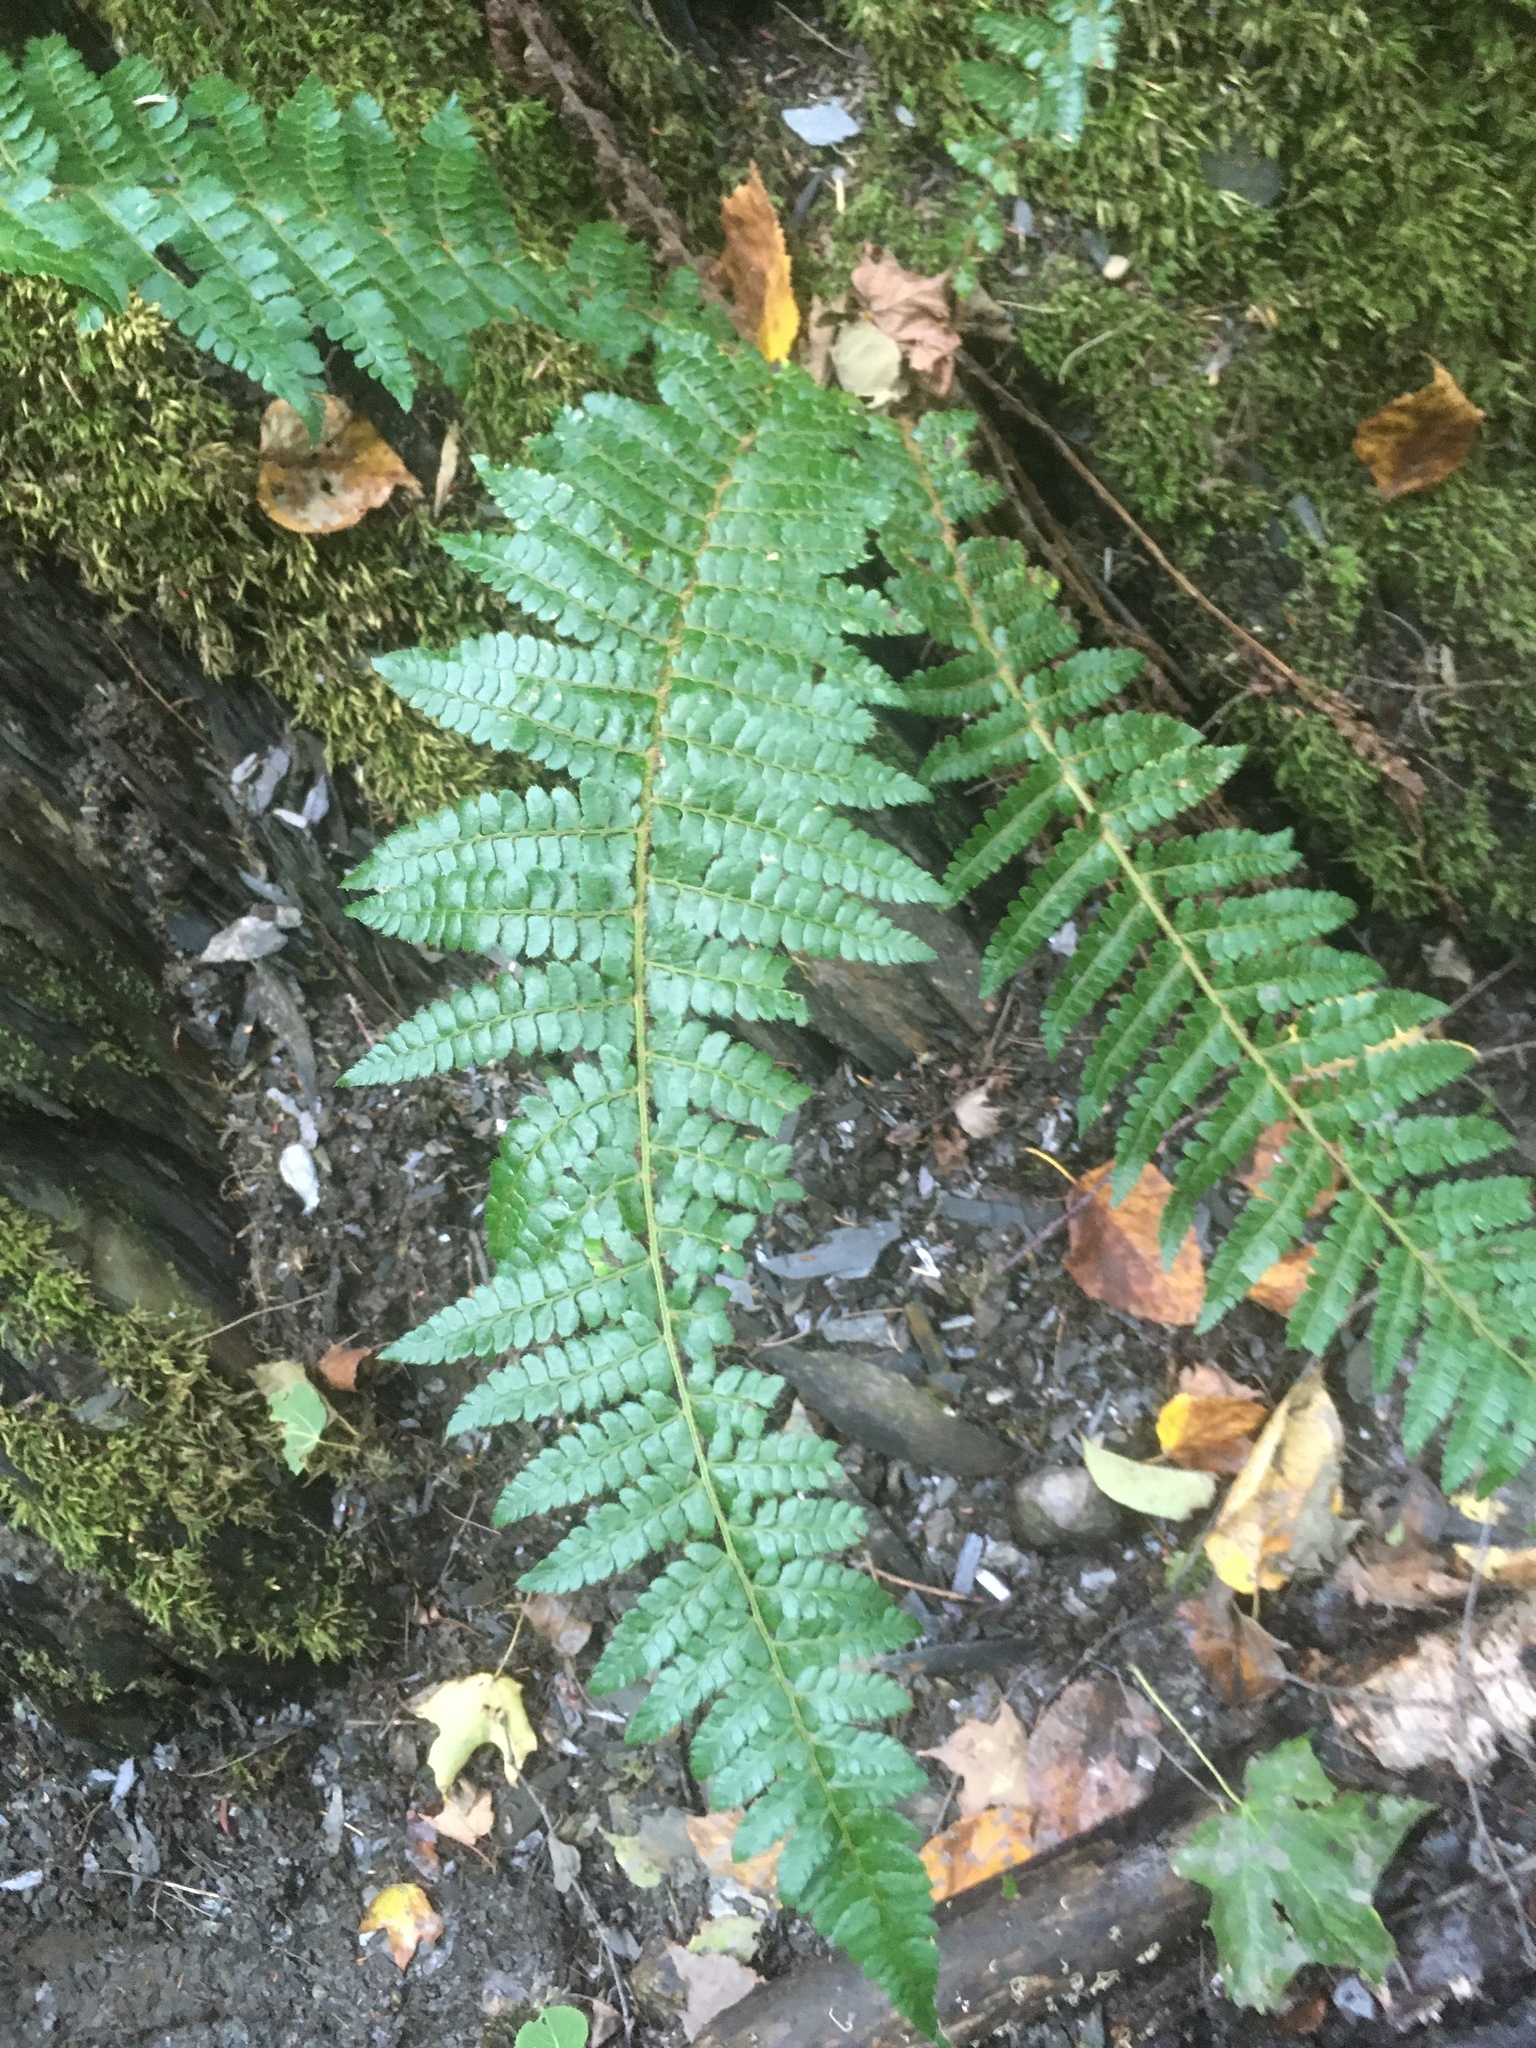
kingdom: Plantae
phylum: Tracheophyta
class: Polypodiopsida
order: Polypodiales
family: Dryopteridaceae
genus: Polystichum
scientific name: Polystichum braunii
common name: Braun's holly fern
